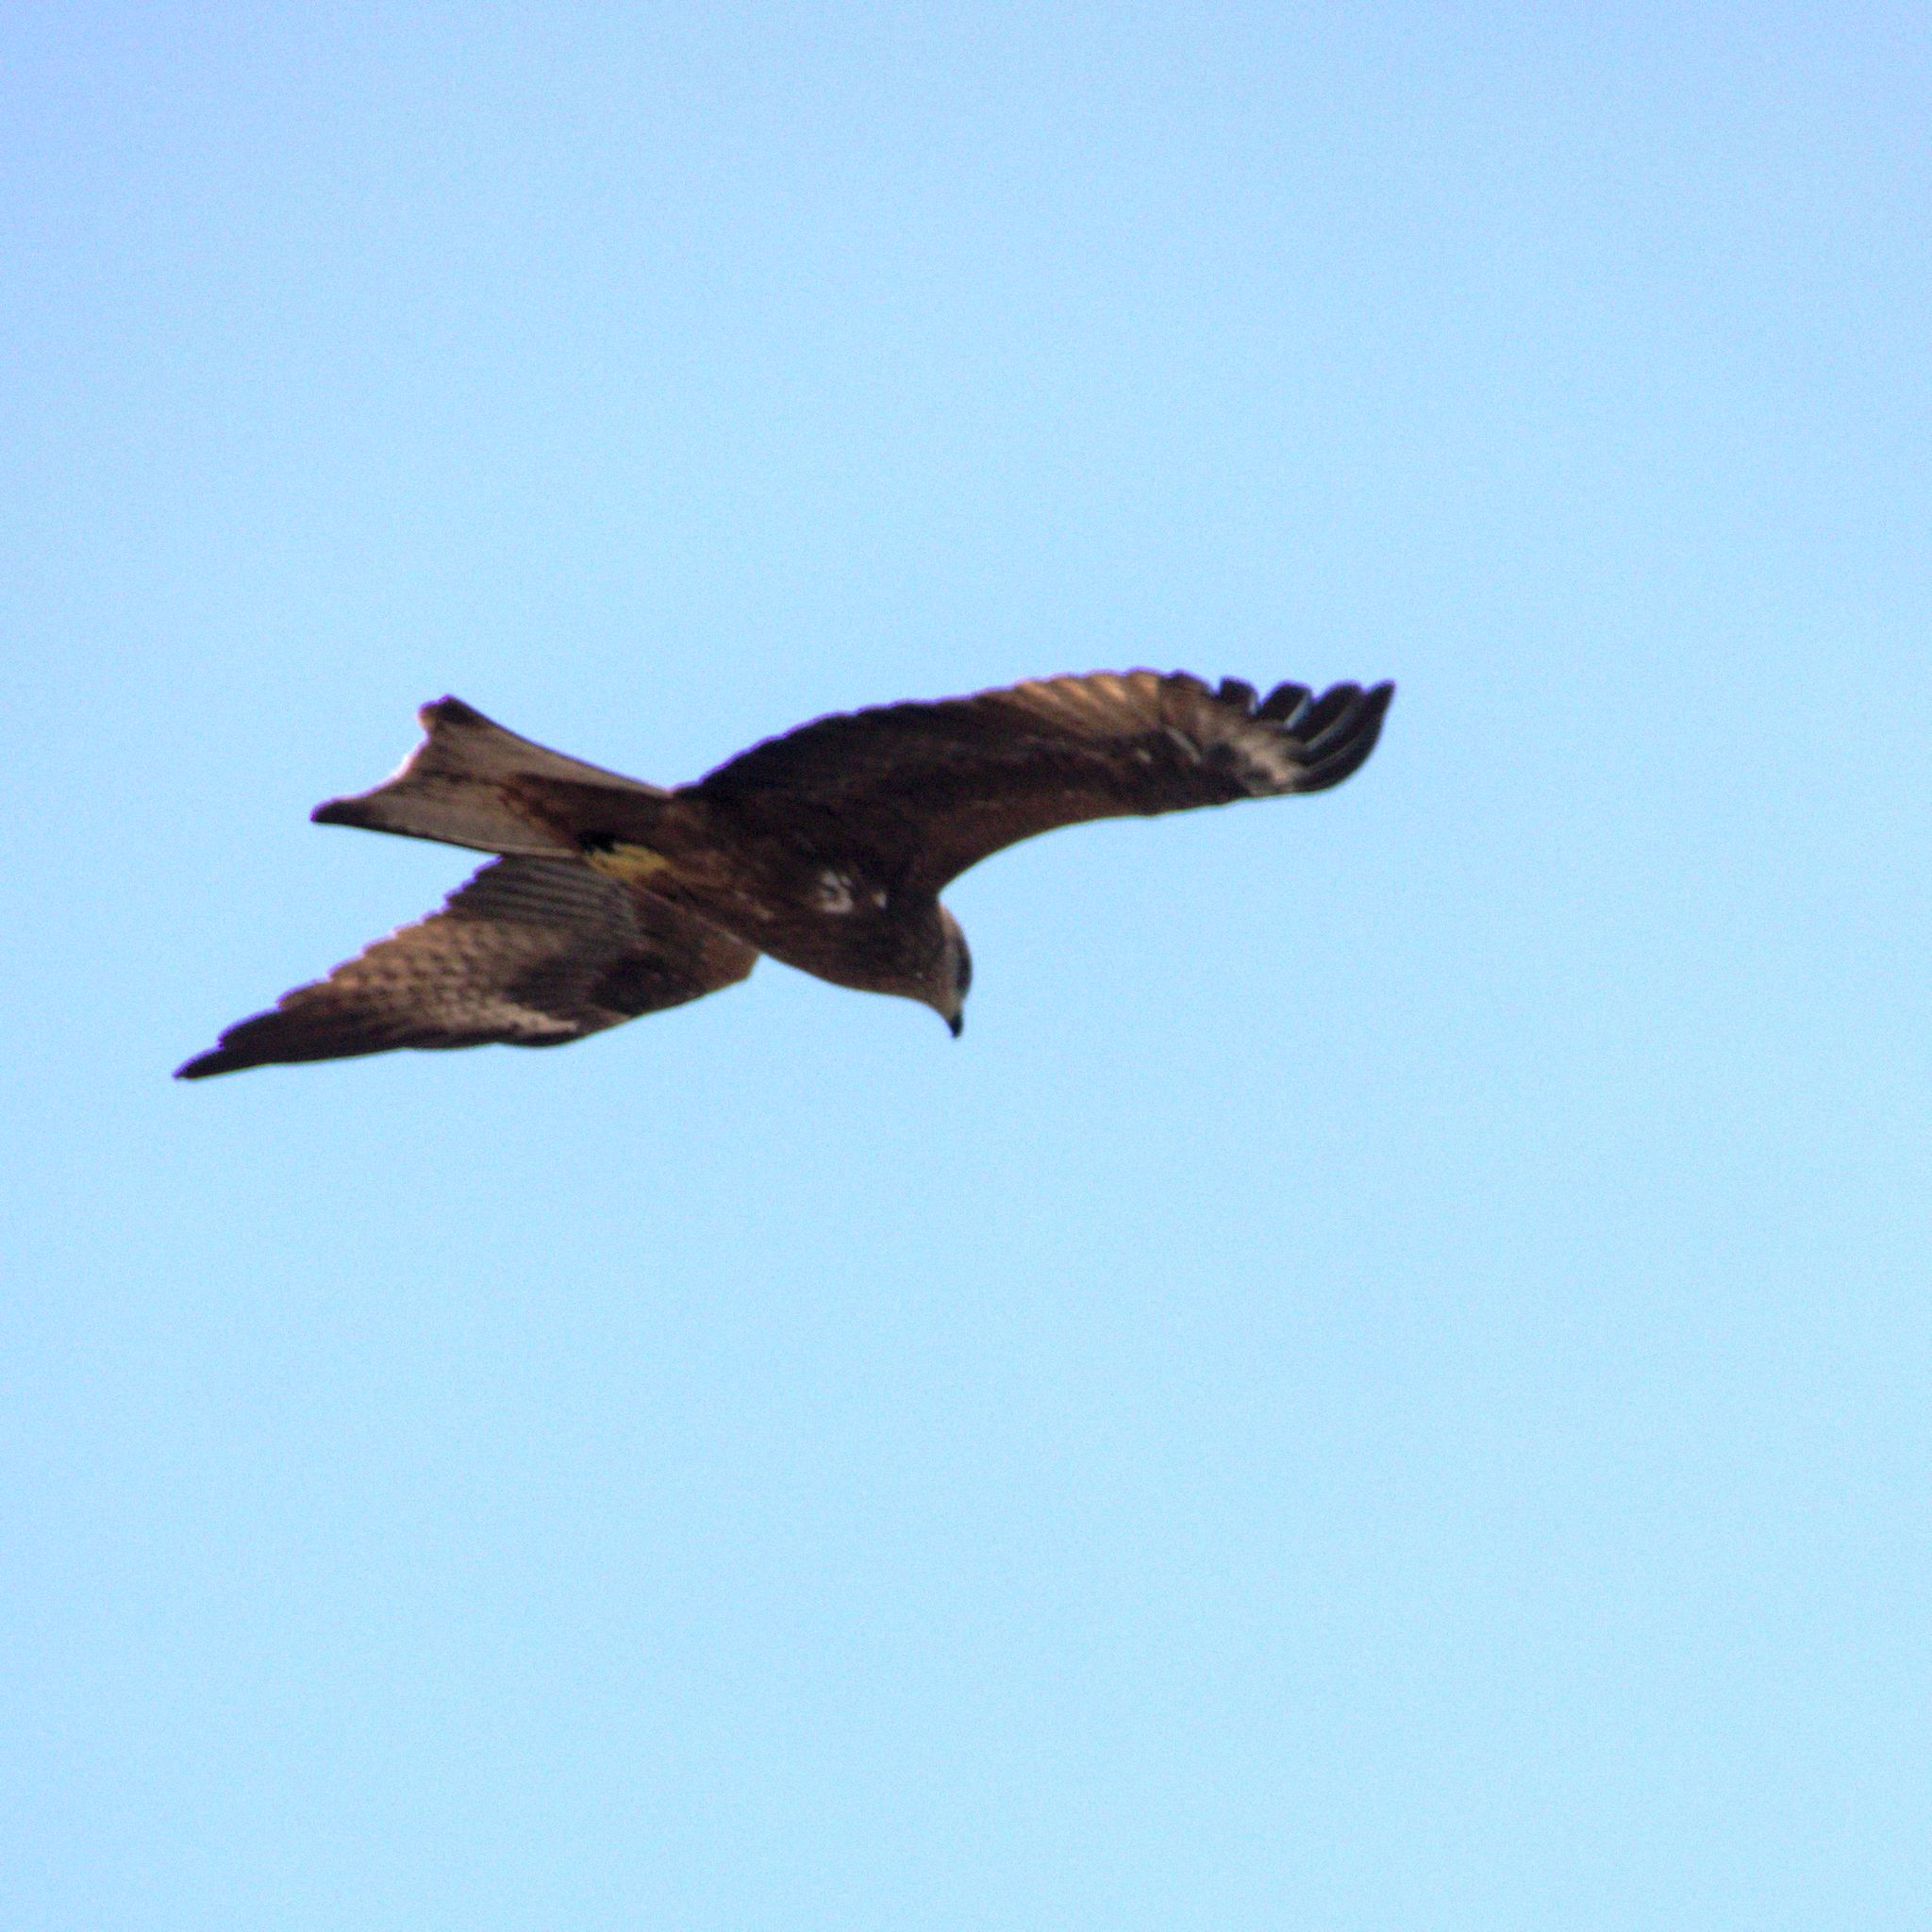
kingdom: Animalia
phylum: Chordata
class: Aves
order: Accipitriformes
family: Accipitridae
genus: Milvus
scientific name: Milvus migrans
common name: Black kite
